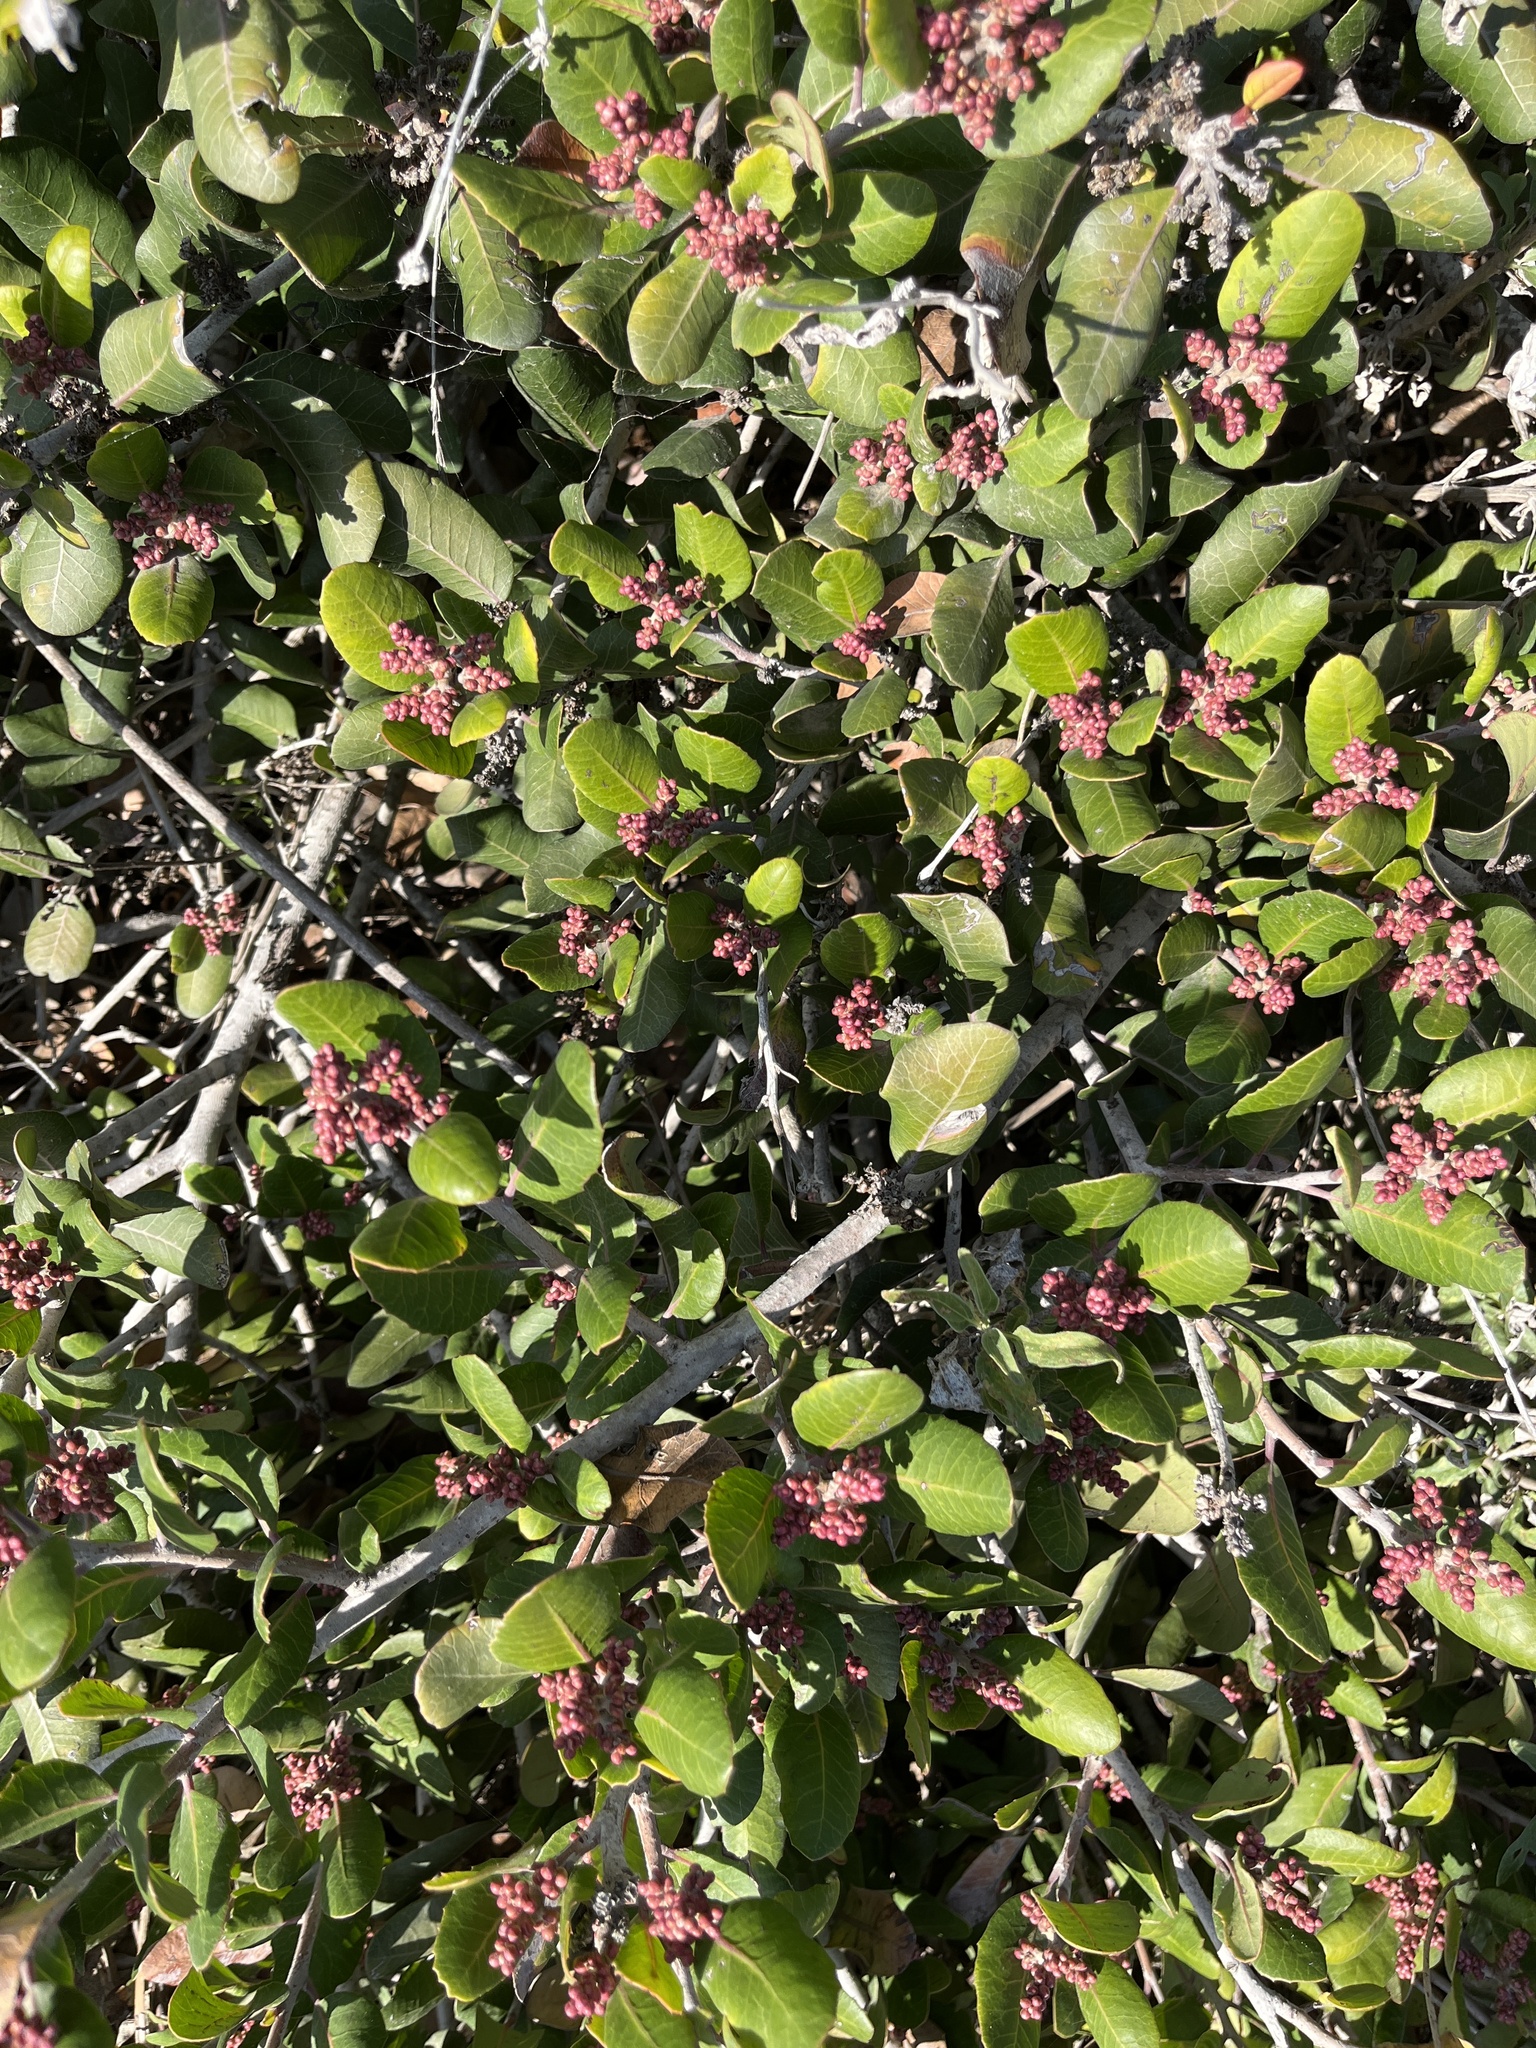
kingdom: Plantae
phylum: Tracheophyta
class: Magnoliopsida
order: Sapindales
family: Anacardiaceae
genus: Rhus
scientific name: Rhus integrifolia
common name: Lemonade sumac
